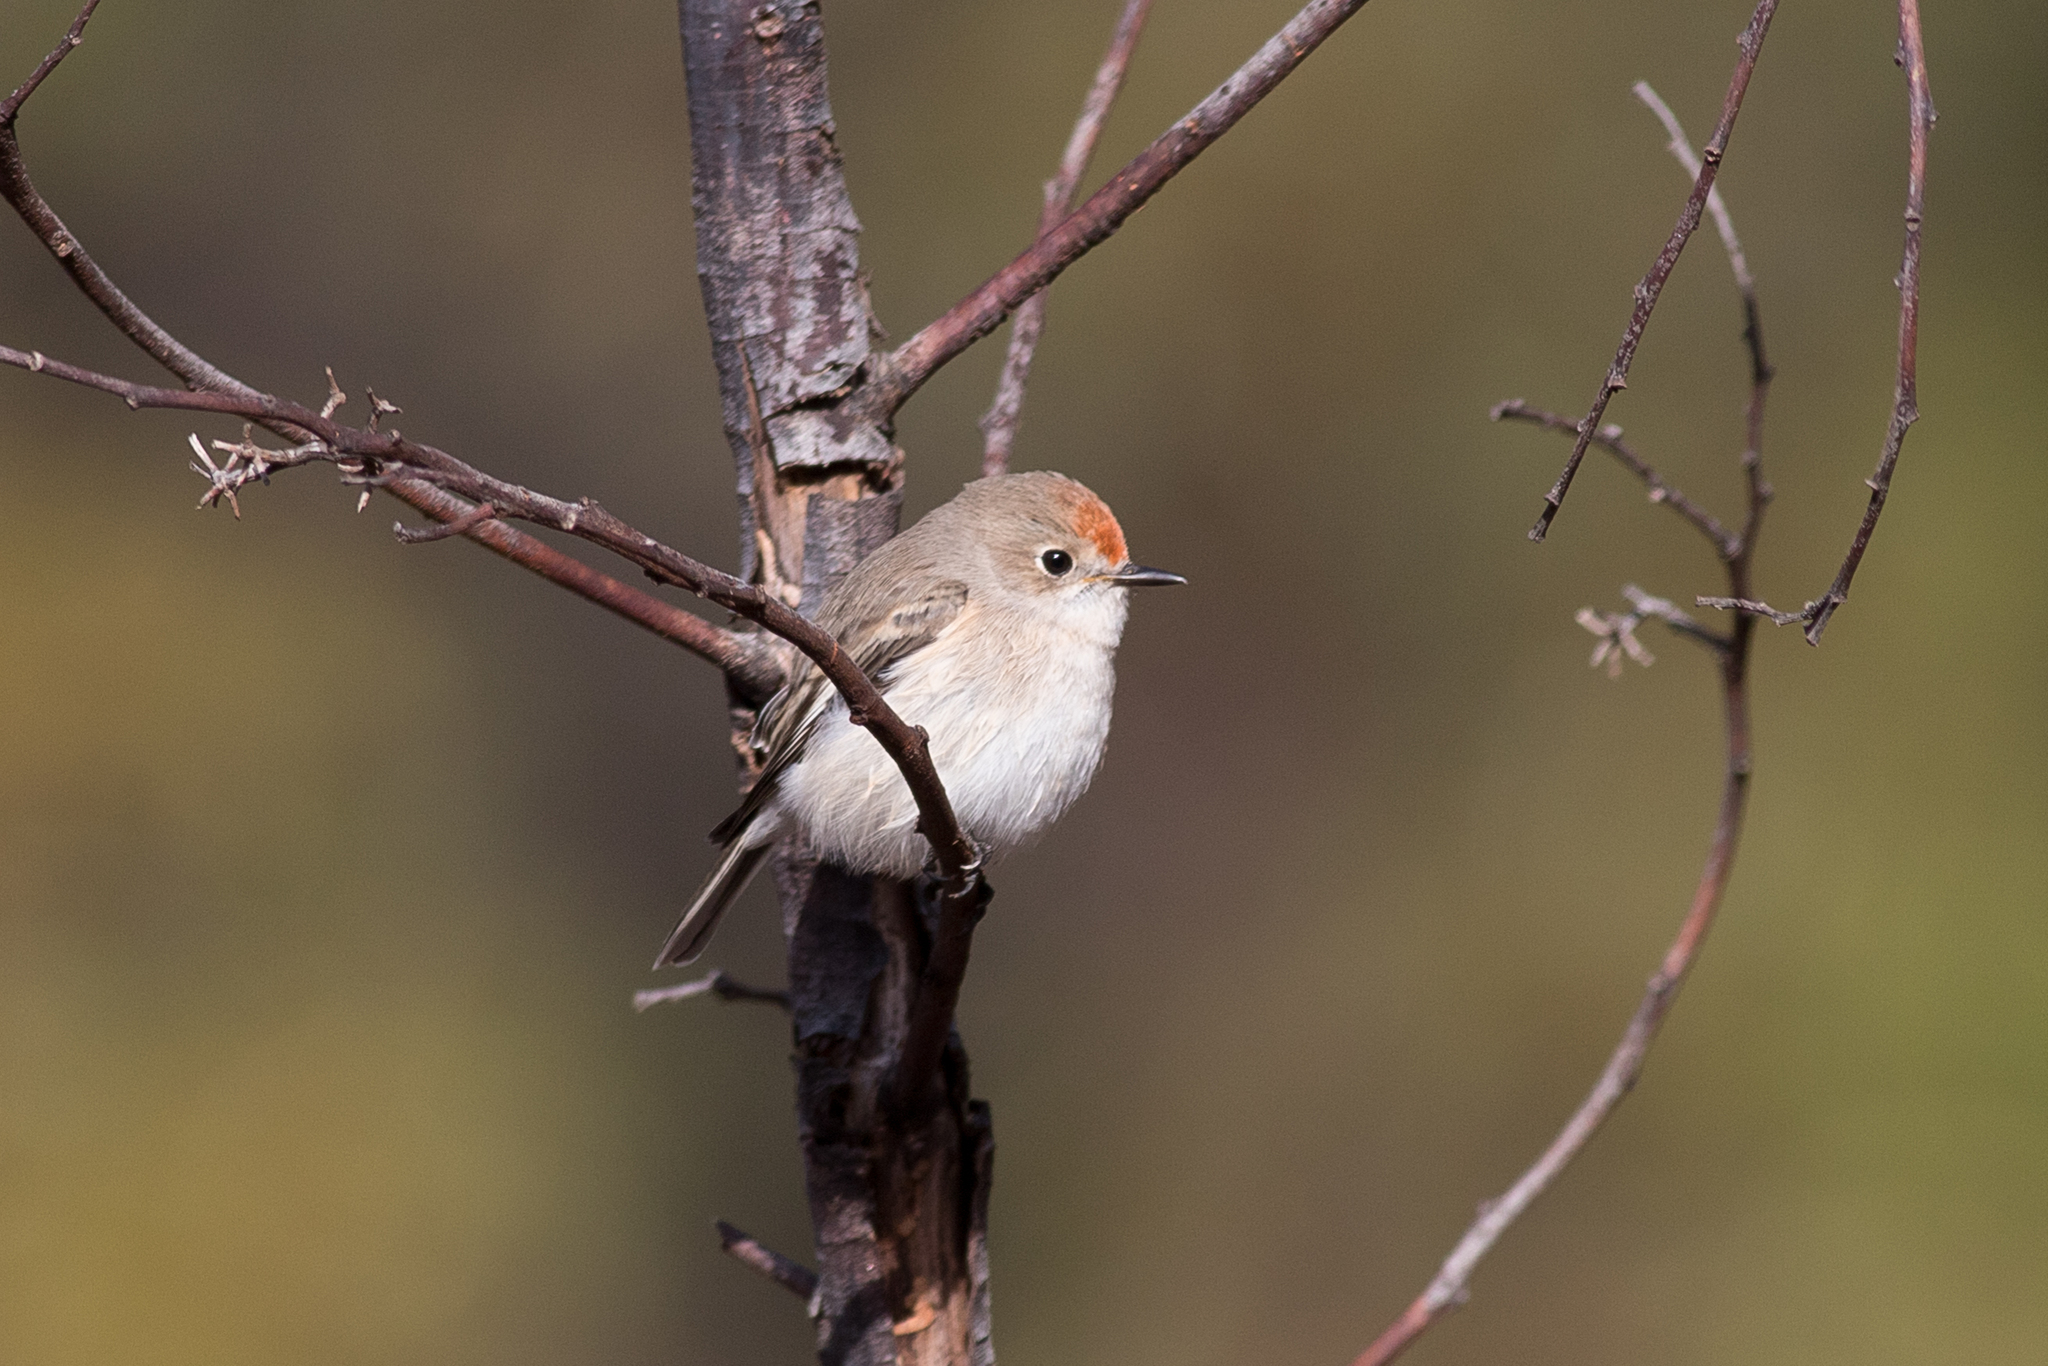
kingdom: Animalia
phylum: Chordata
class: Aves
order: Passeriformes
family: Petroicidae
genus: Petroica
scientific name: Petroica goodenovii
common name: Red-capped robin
